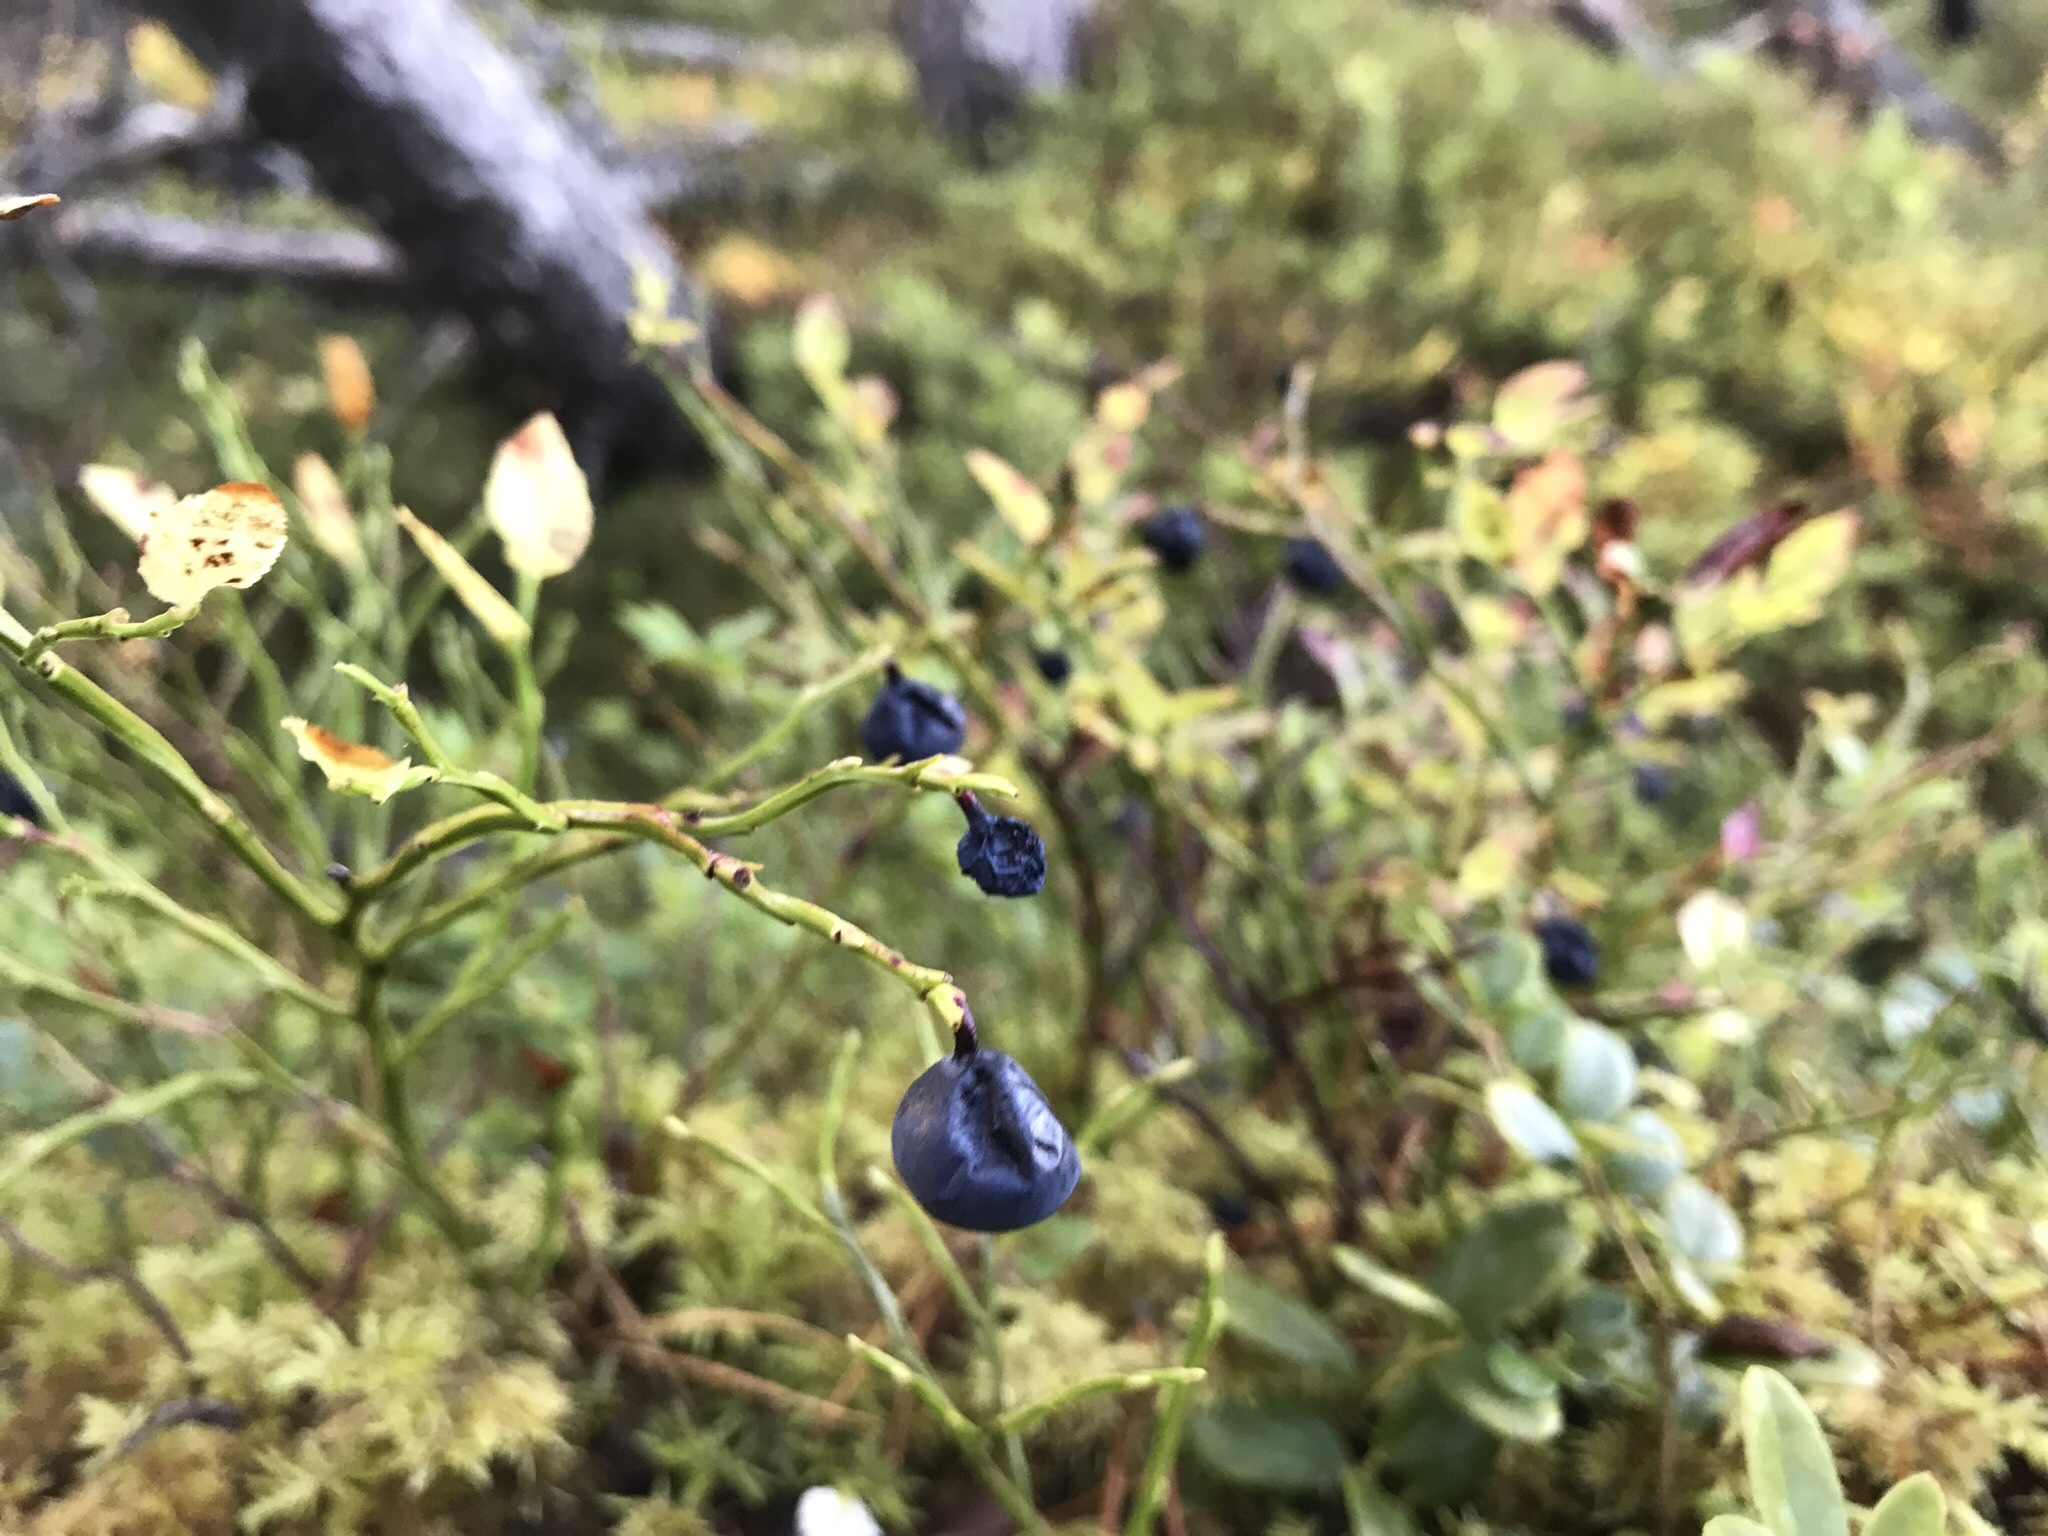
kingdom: Plantae
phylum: Tracheophyta
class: Magnoliopsida
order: Ericales
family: Ericaceae
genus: Vaccinium
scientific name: Vaccinium myrtillus
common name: Bilberry
